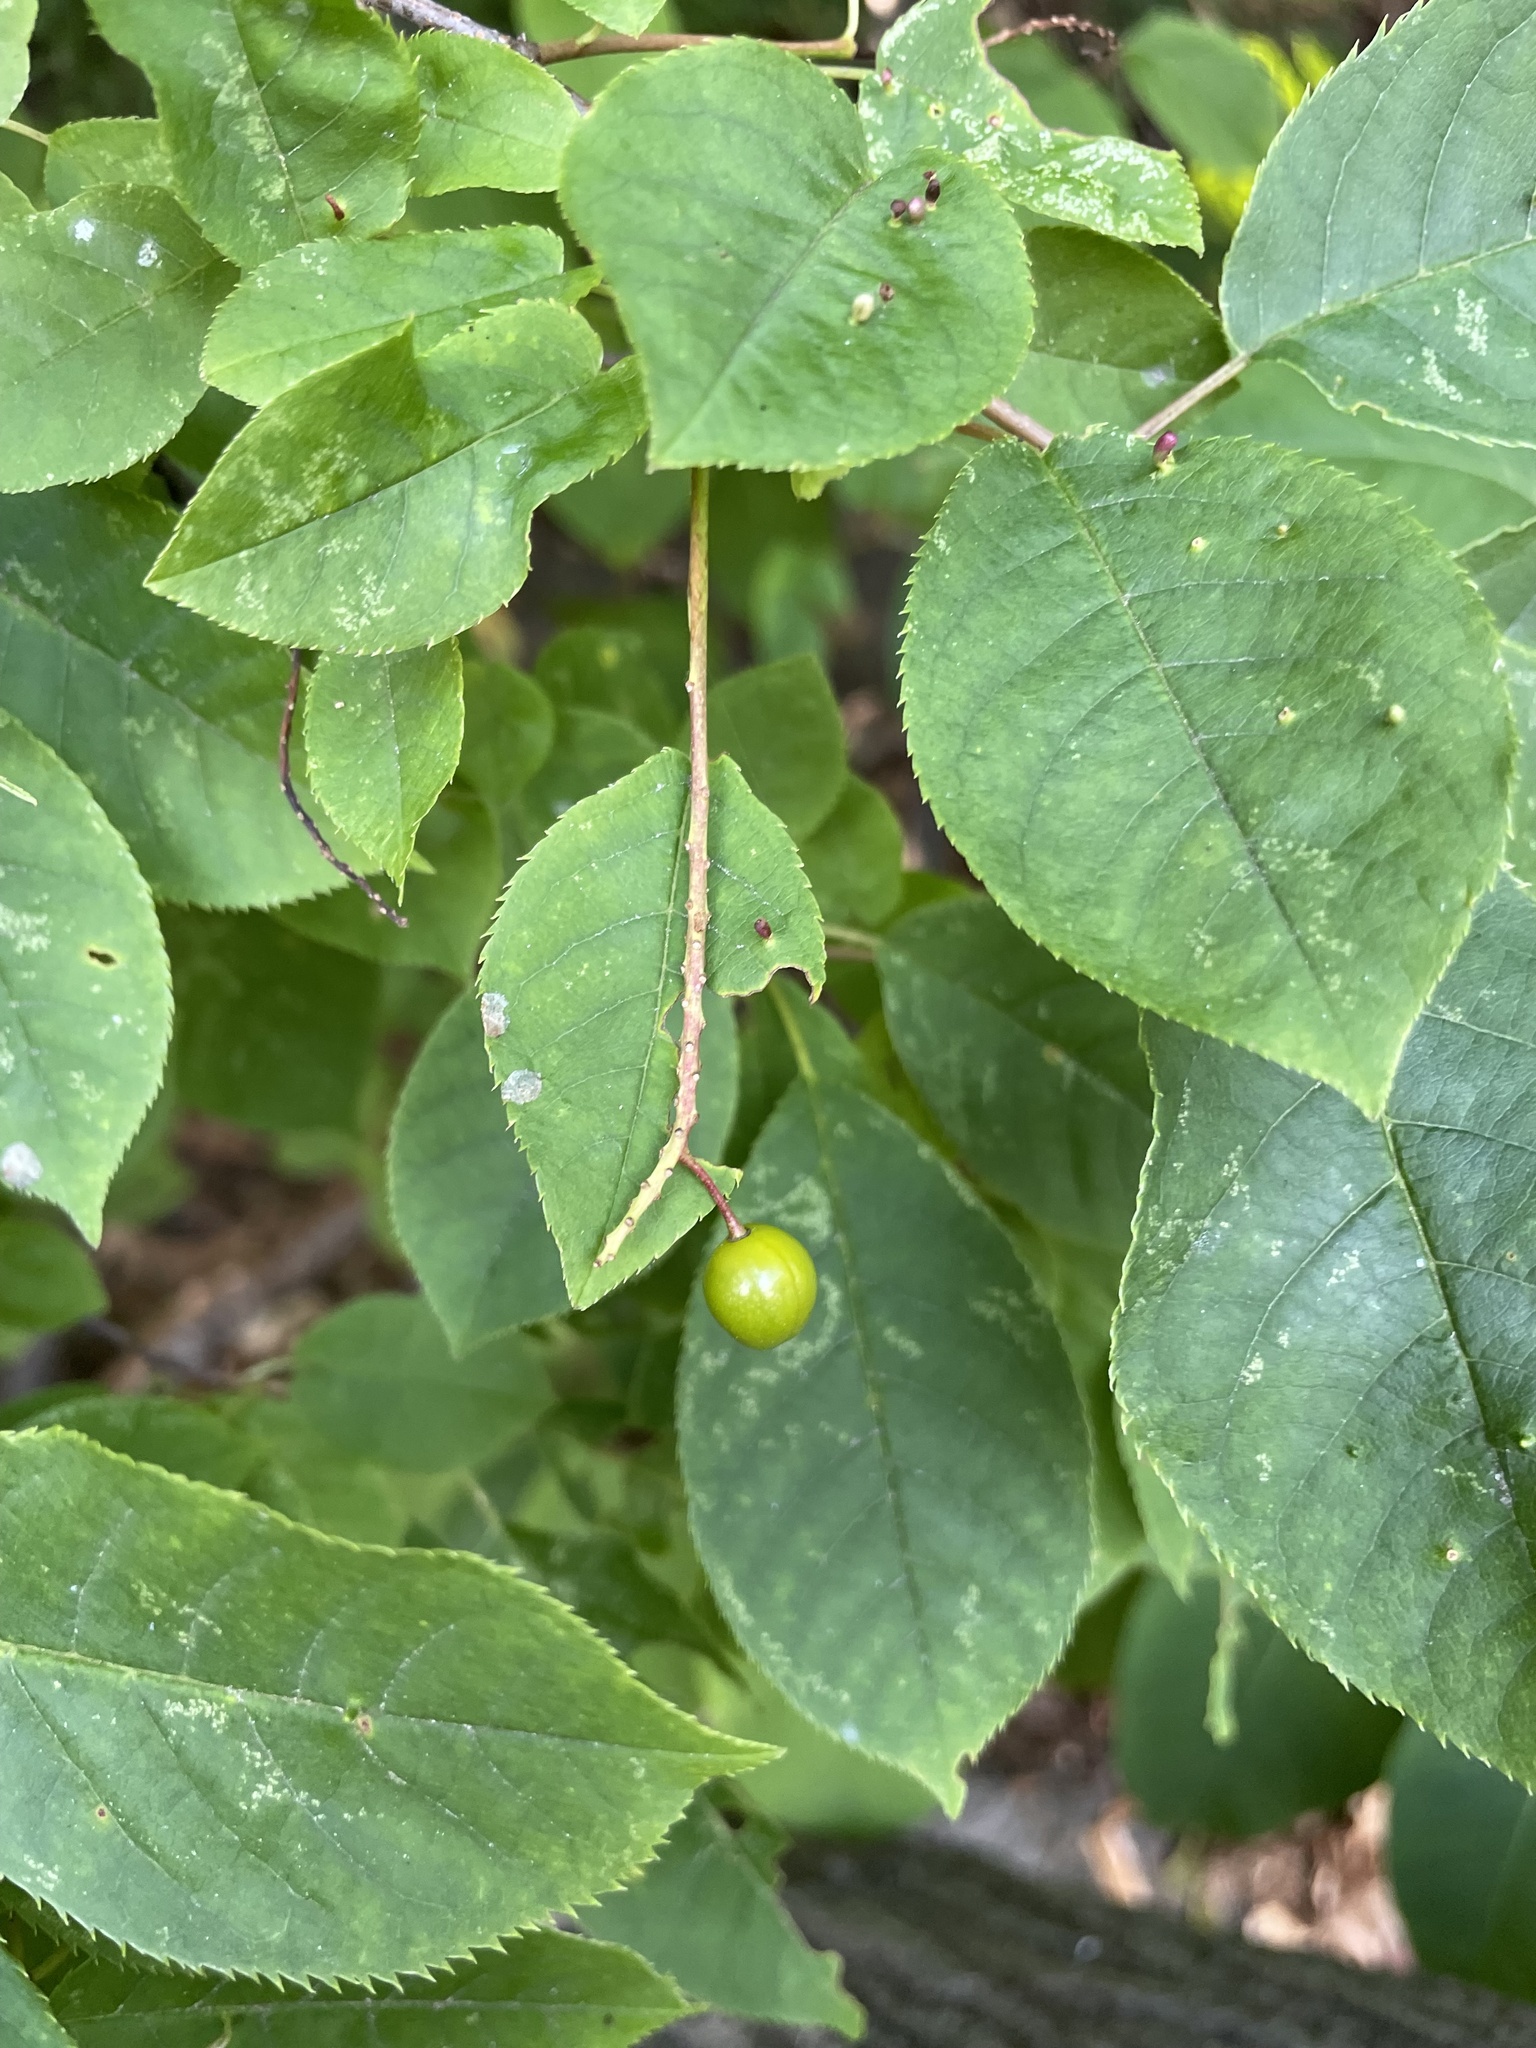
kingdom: Plantae
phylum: Tracheophyta
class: Magnoliopsida
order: Rosales
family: Rosaceae
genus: Prunus
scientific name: Prunus virginiana
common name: Chokecherry
